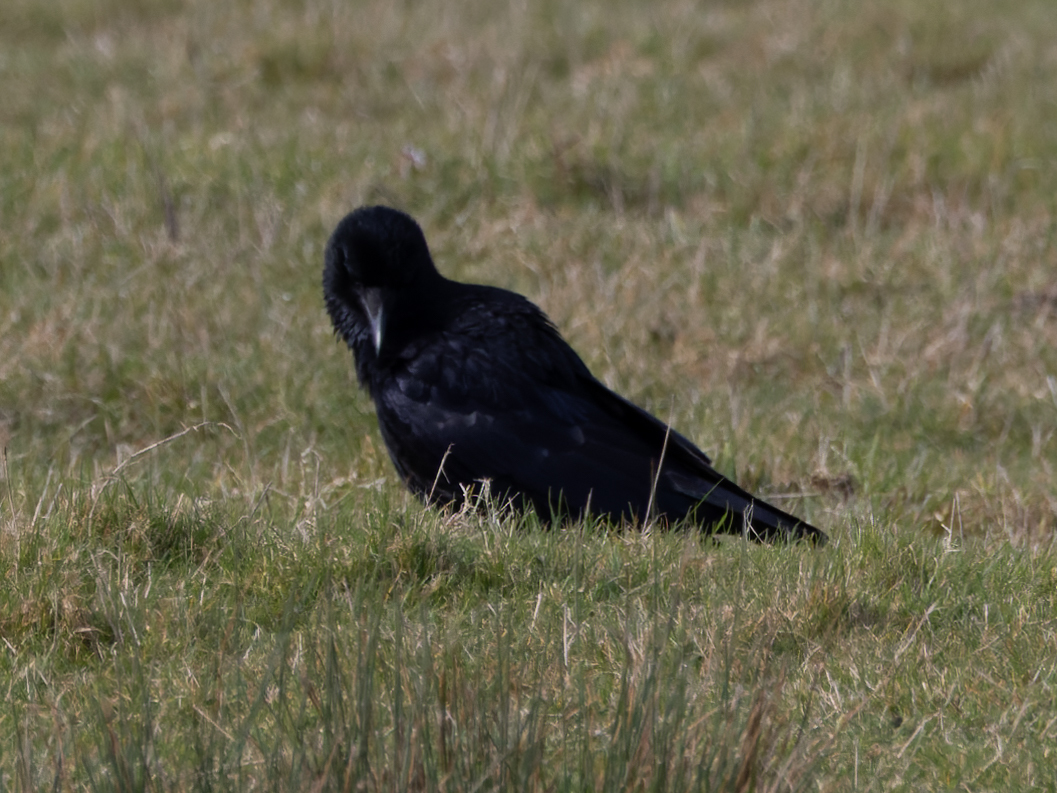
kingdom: Animalia
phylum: Chordata
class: Aves
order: Passeriformes
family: Corvidae
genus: Corvus
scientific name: Corvus corone
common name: Carrion crow
